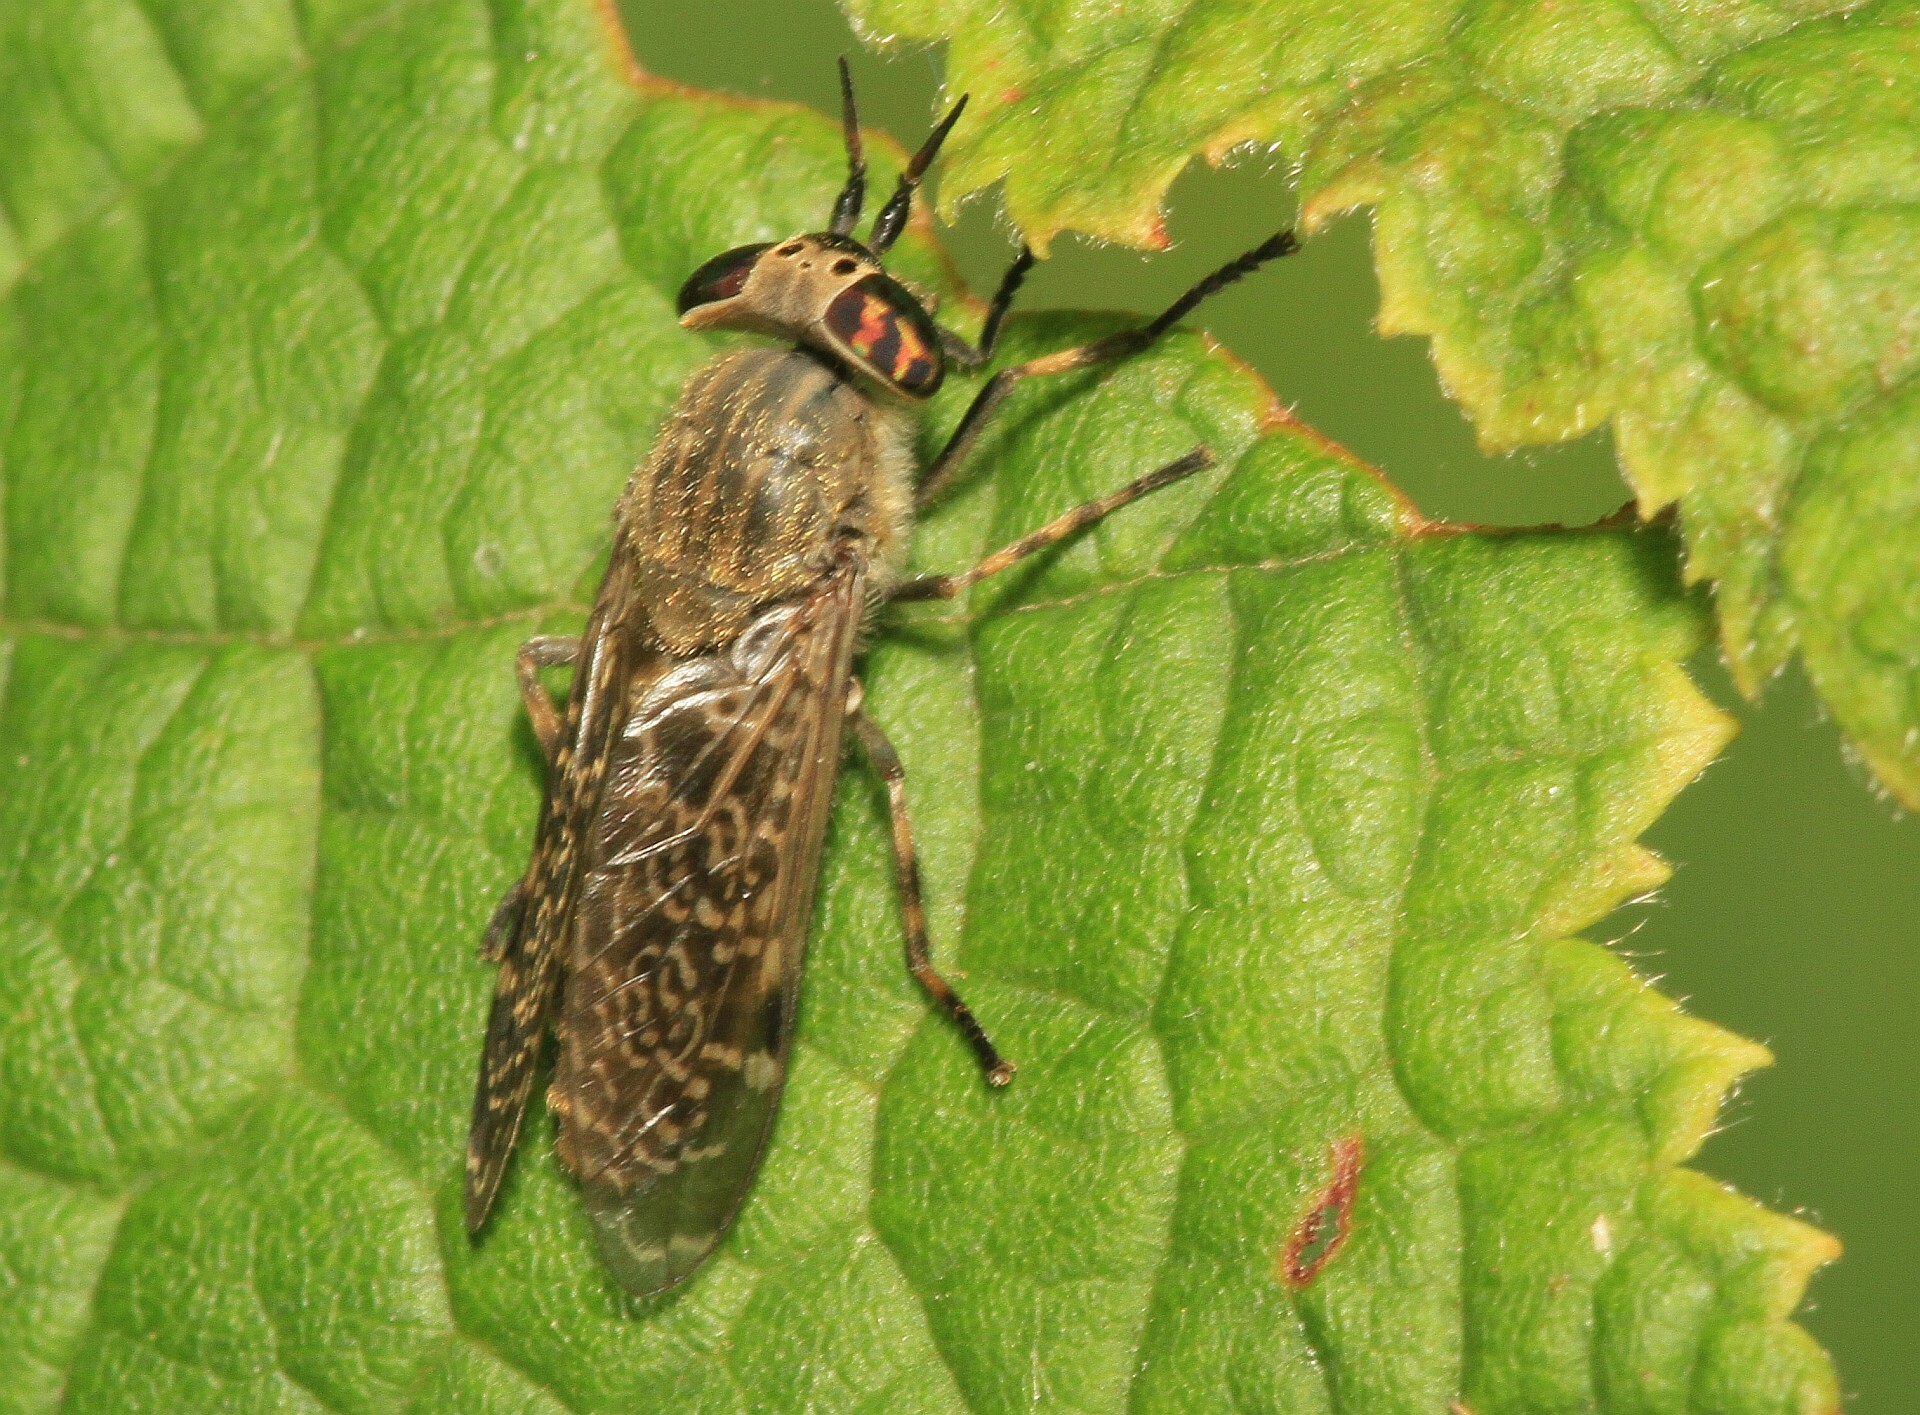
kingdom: Animalia
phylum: Arthropoda
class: Insecta
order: Diptera
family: Tabanidae
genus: Haematopota
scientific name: Haematopota pluvialis
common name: Common horse fly
